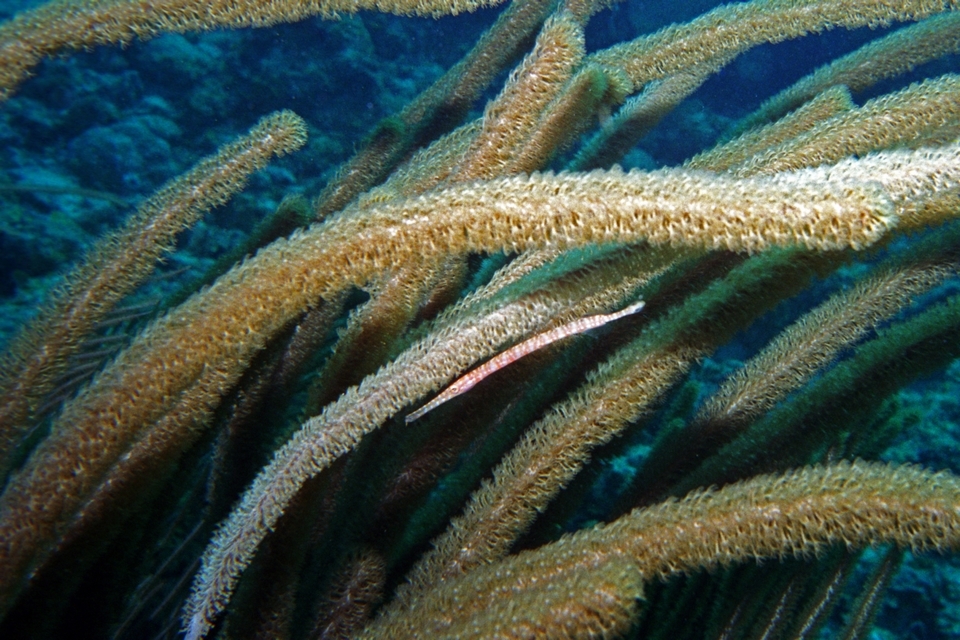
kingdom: Animalia
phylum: Chordata
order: Syngnathiformes
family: Aulostomidae
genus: Aulostomus
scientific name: Aulostomus maculatus
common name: West atlantic trumpetfish
